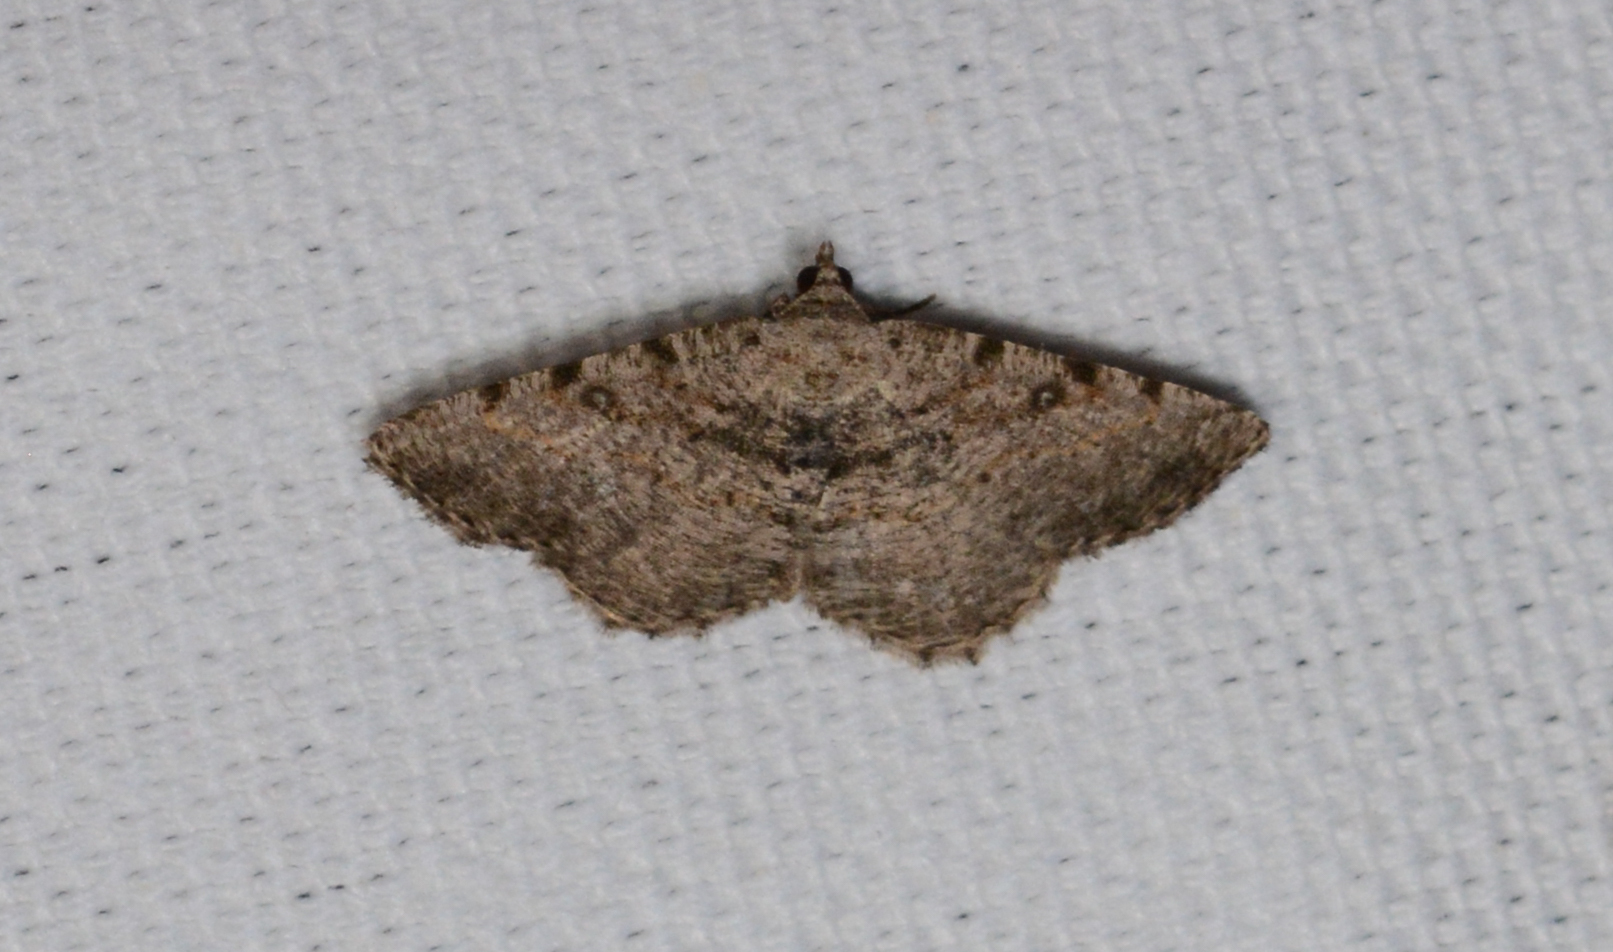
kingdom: Animalia
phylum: Arthropoda
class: Insecta
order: Lepidoptera
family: Geometridae
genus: Digrammia
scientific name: Digrammia gnophosaria
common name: Hollow-spotted angle
